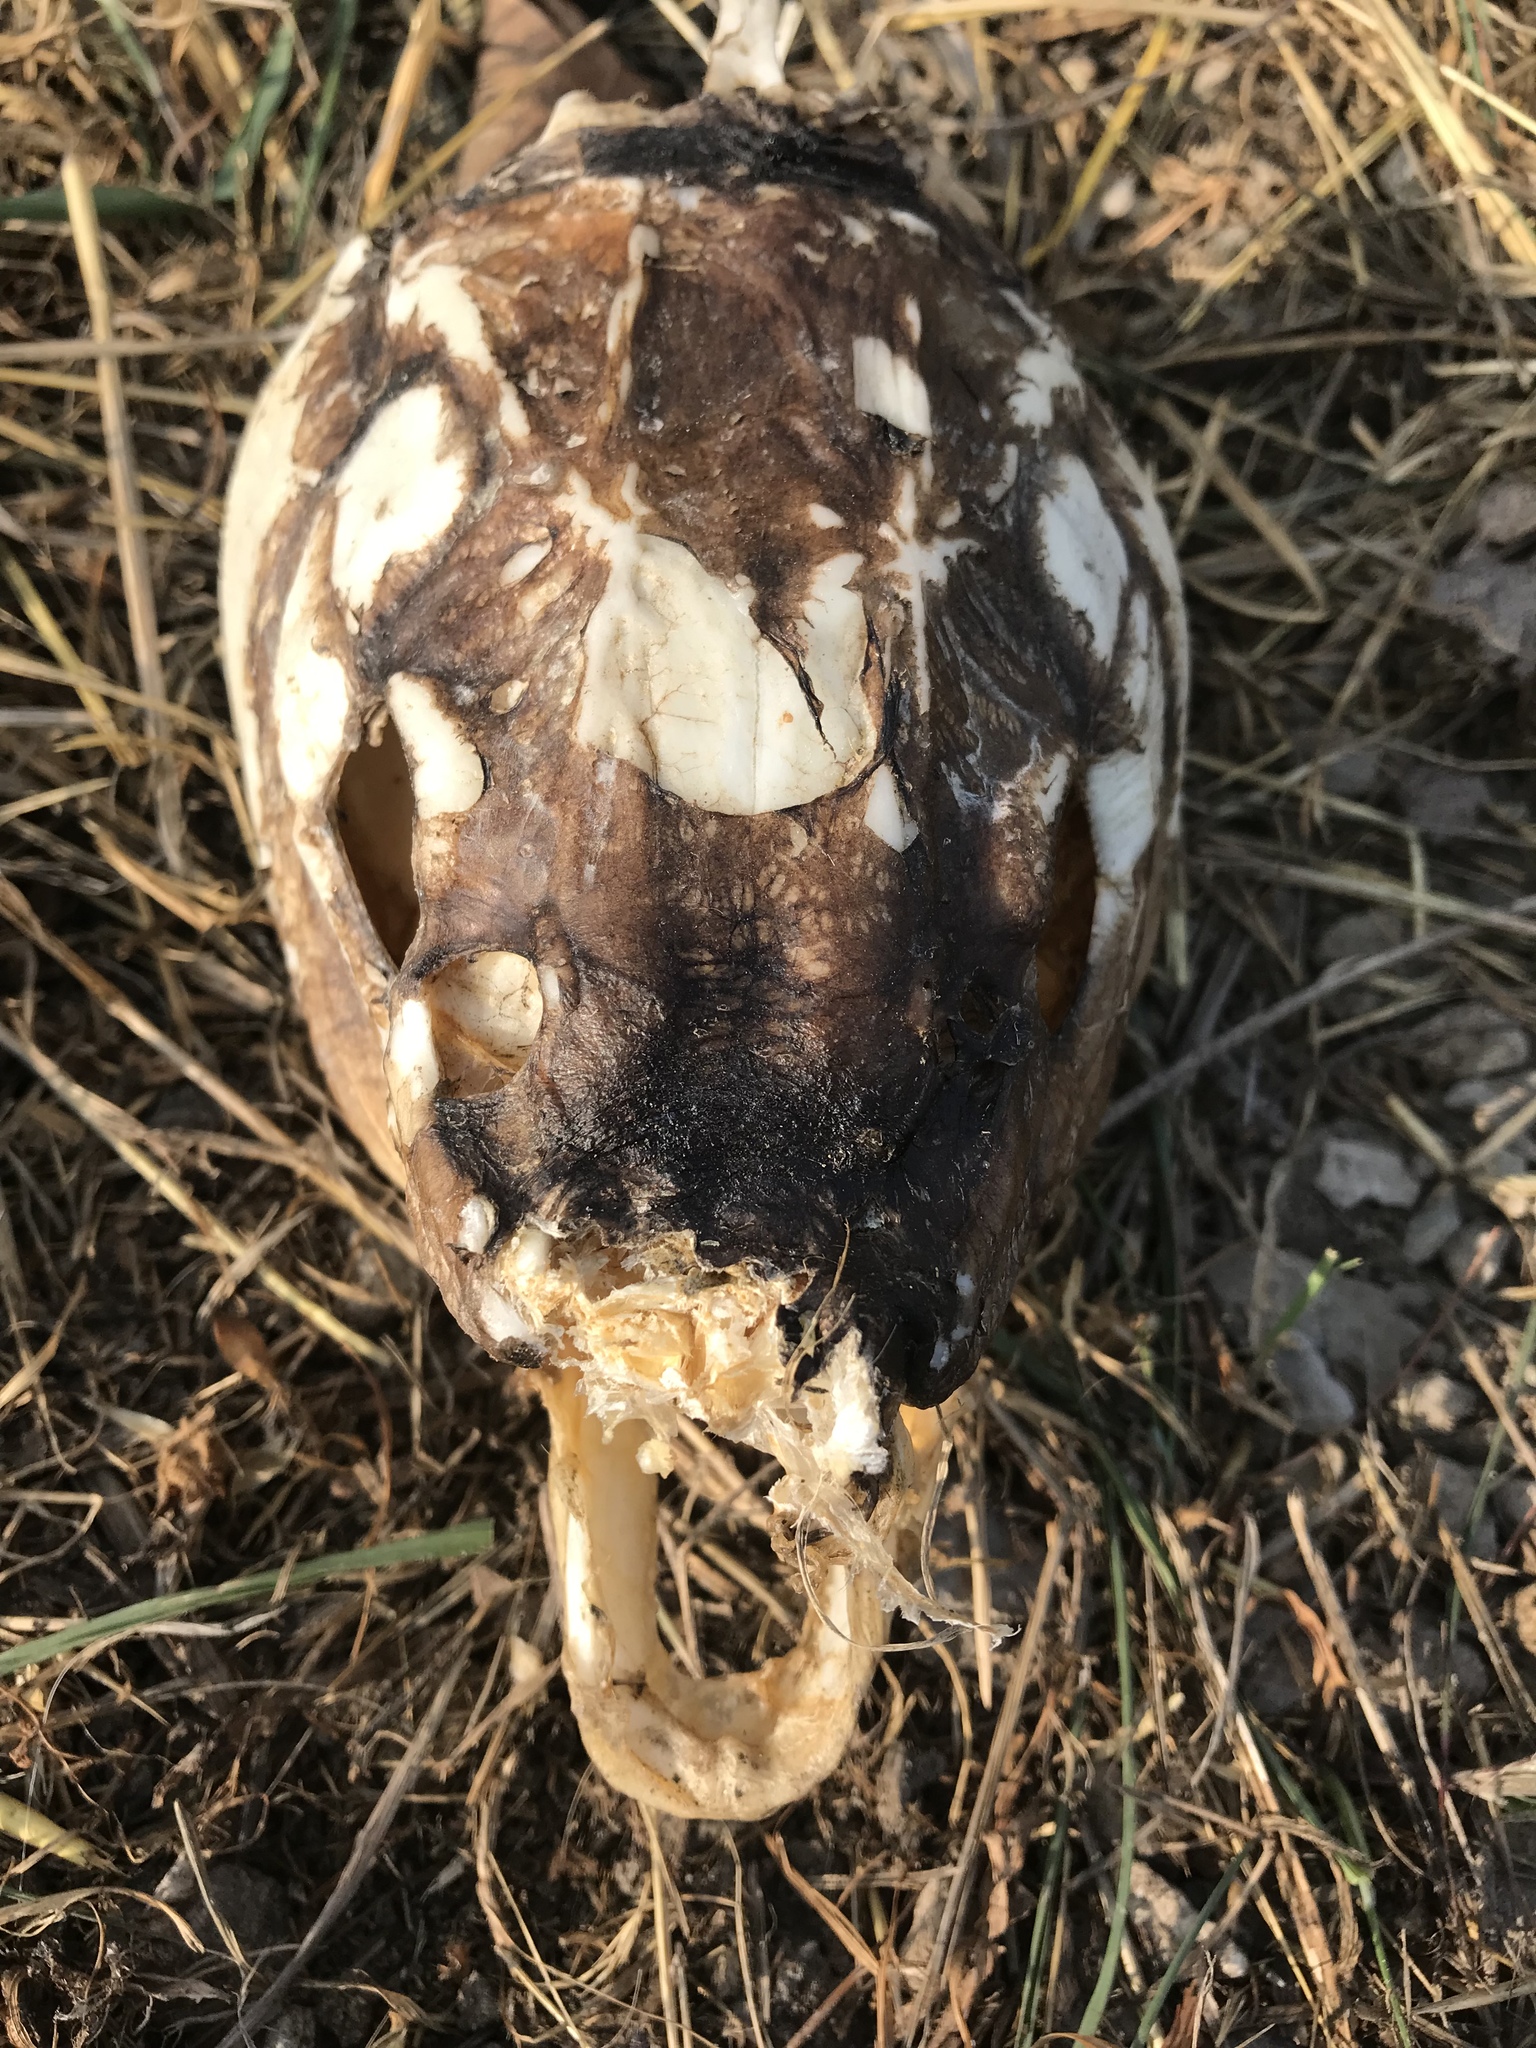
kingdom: Animalia
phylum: Chordata
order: Cypriniformes
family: Cyprinidae
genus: Cyprinus
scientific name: Cyprinus carpio
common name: Common carp
